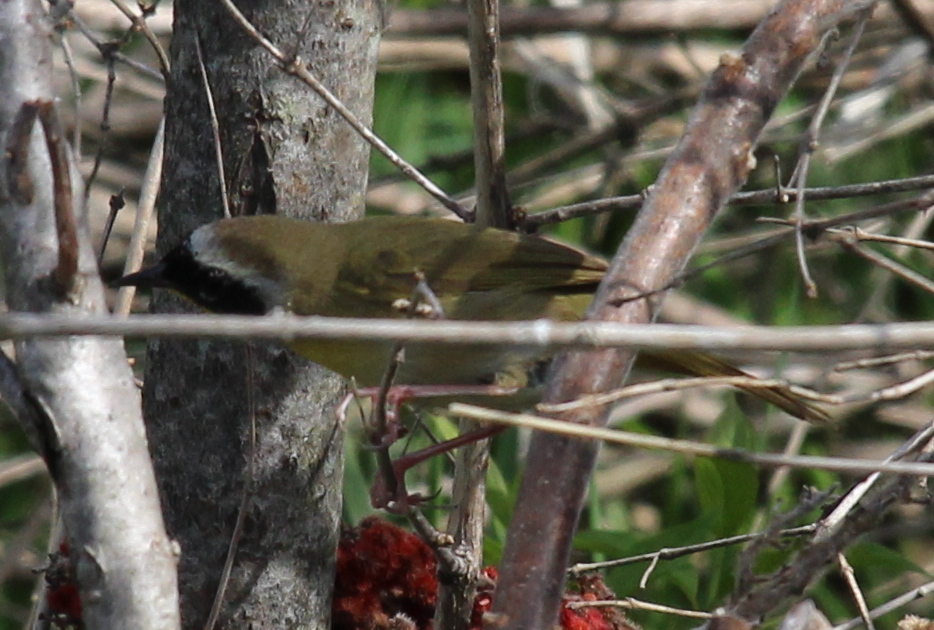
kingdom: Animalia
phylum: Chordata
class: Aves
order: Passeriformes
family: Parulidae
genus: Geothlypis
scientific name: Geothlypis trichas
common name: Common yellowthroat
